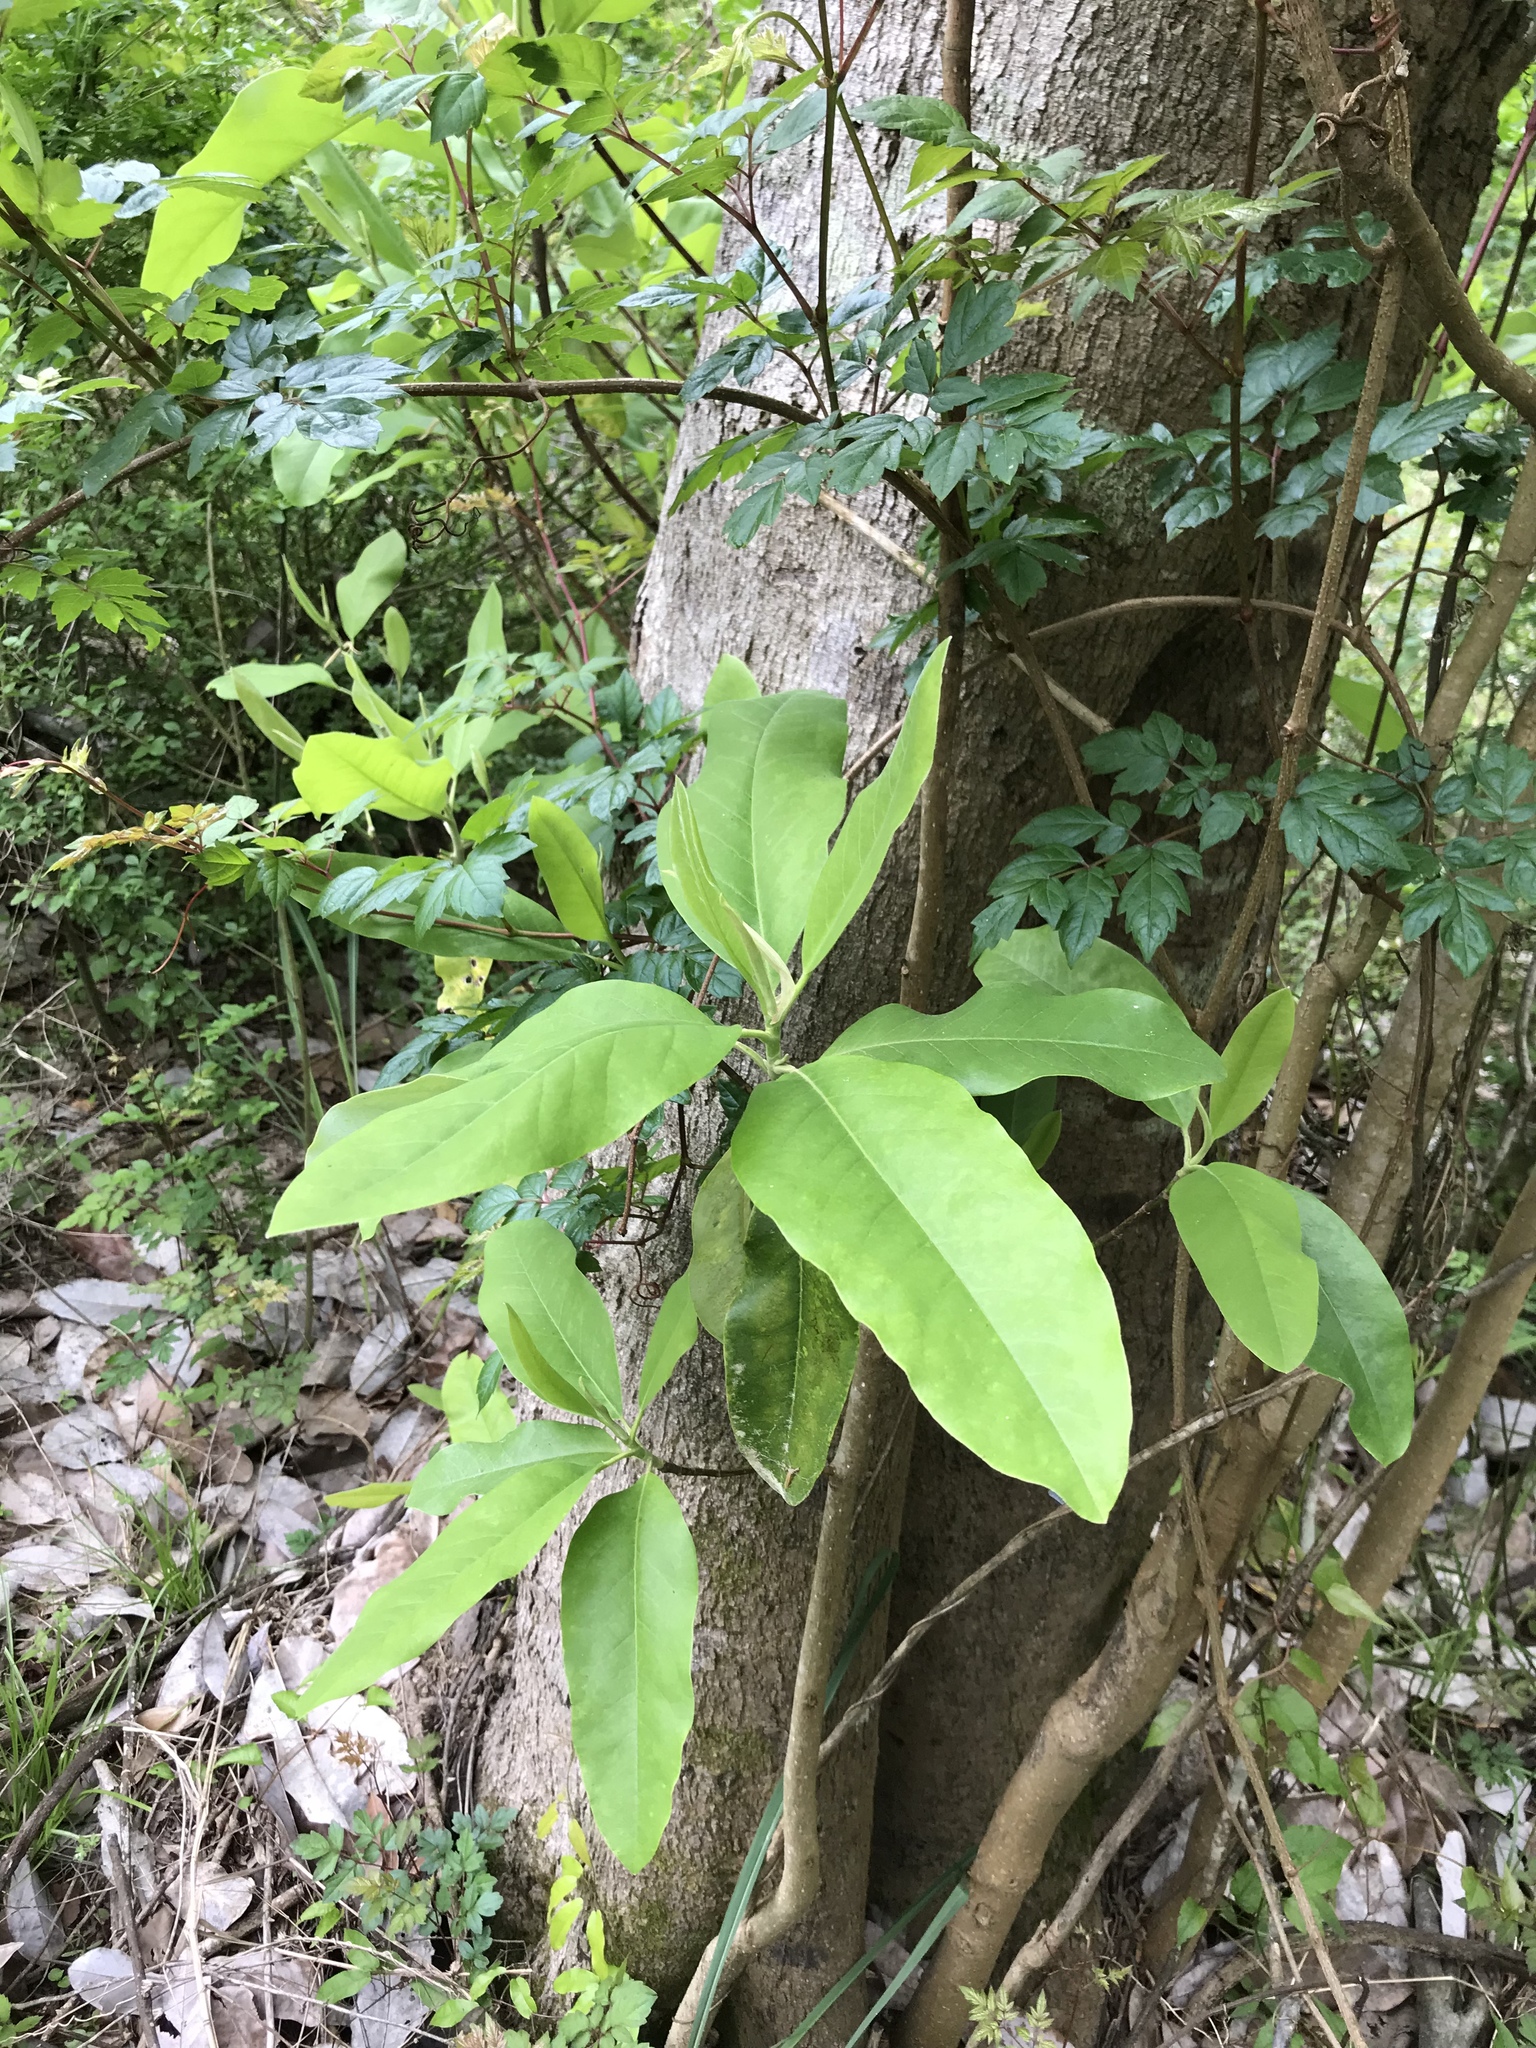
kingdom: Plantae
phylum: Tracheophyta
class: Magnoliopsida
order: Magnoliales
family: Magnoliaceae
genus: Magnolia
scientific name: Magnolia virginiana
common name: Swamp bay
